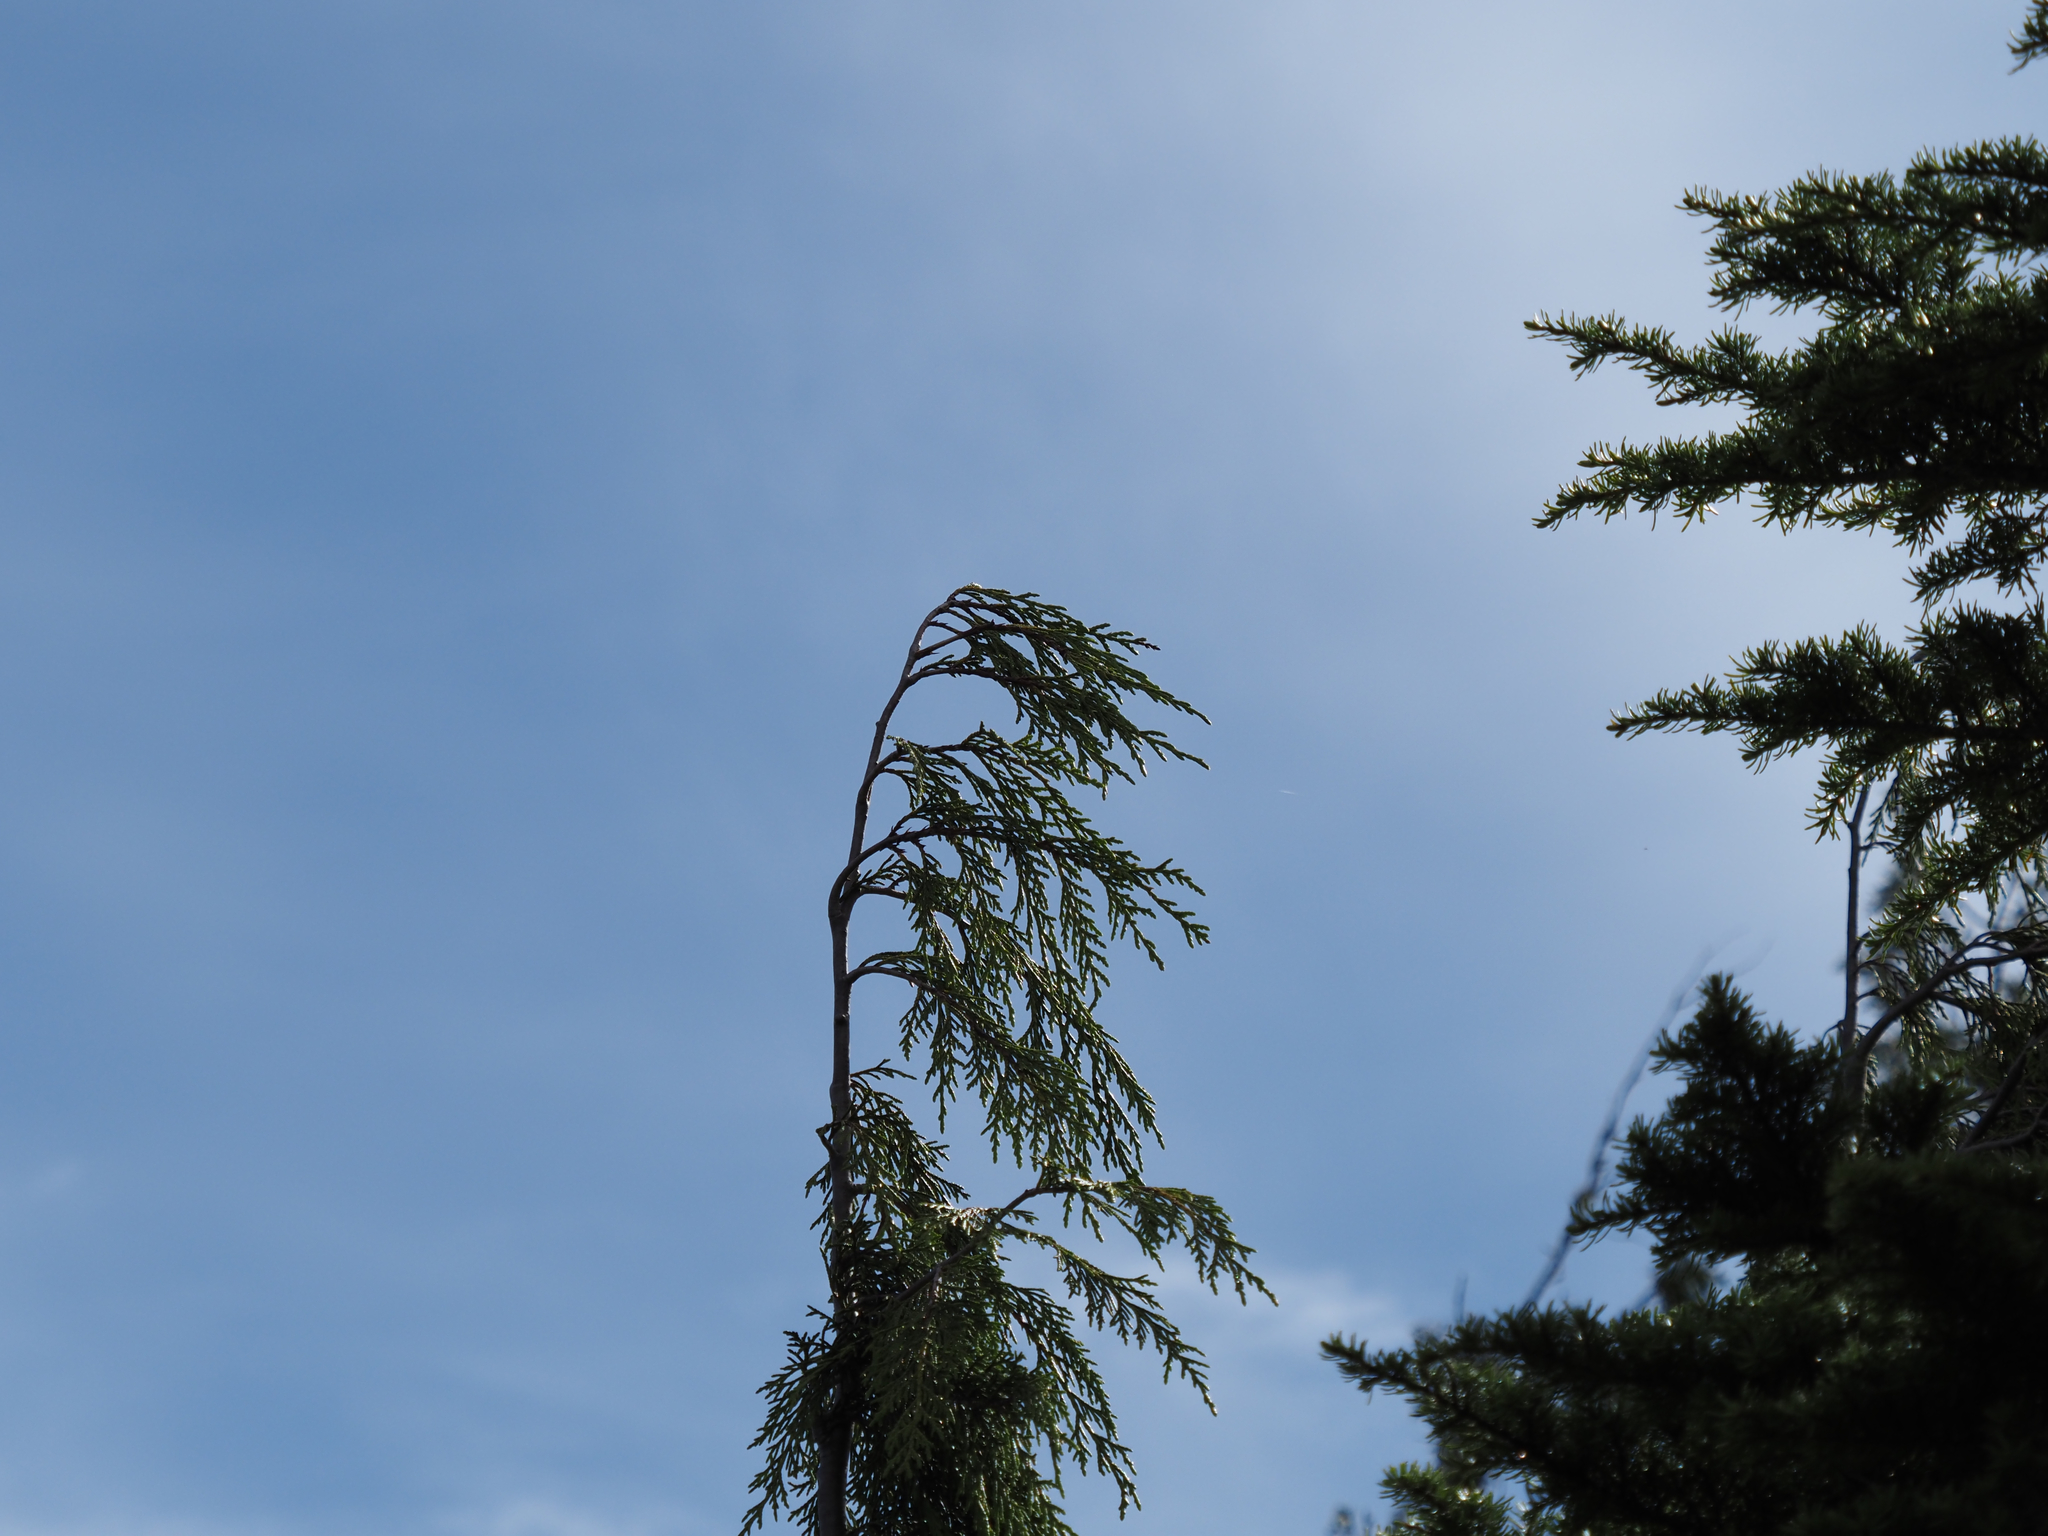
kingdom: Plantae
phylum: Tracheophyta
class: Pinopsida
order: Pinales
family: Cupressaceae
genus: Xanthocyparis
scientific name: Xanthocyparis nootkatensis
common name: Nootka cypress
